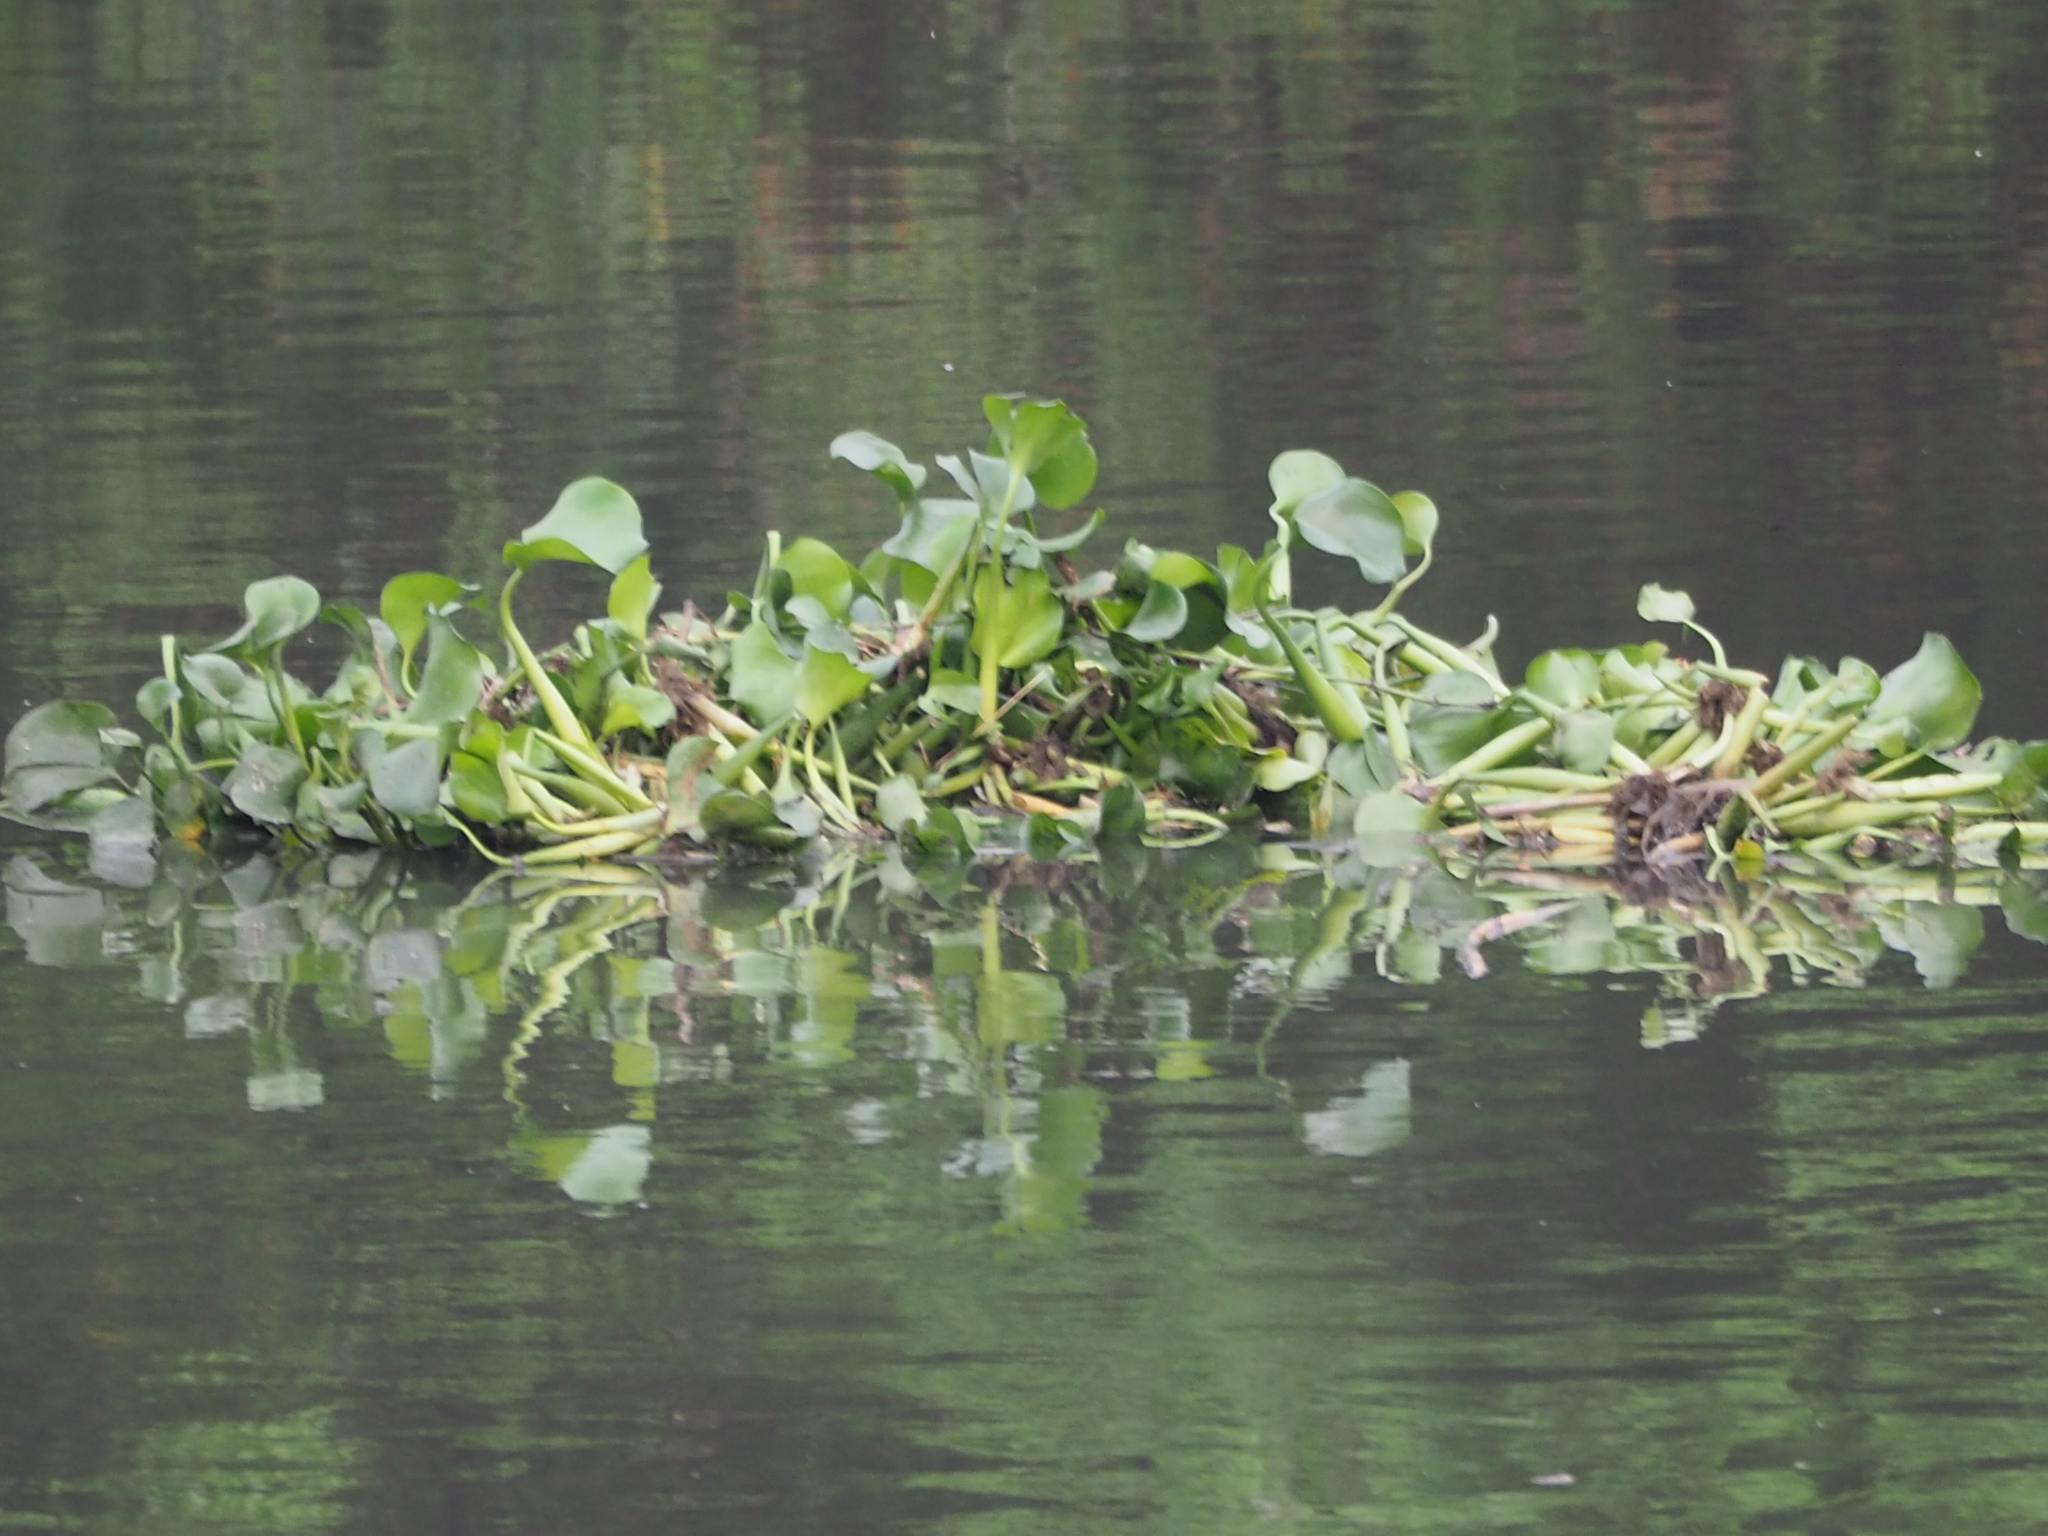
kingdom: Plantae
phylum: Tracheophyta
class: Liliopsida
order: Commelinales
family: Pontederiaceae
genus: Pontederia
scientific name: Pontederia crassipes
